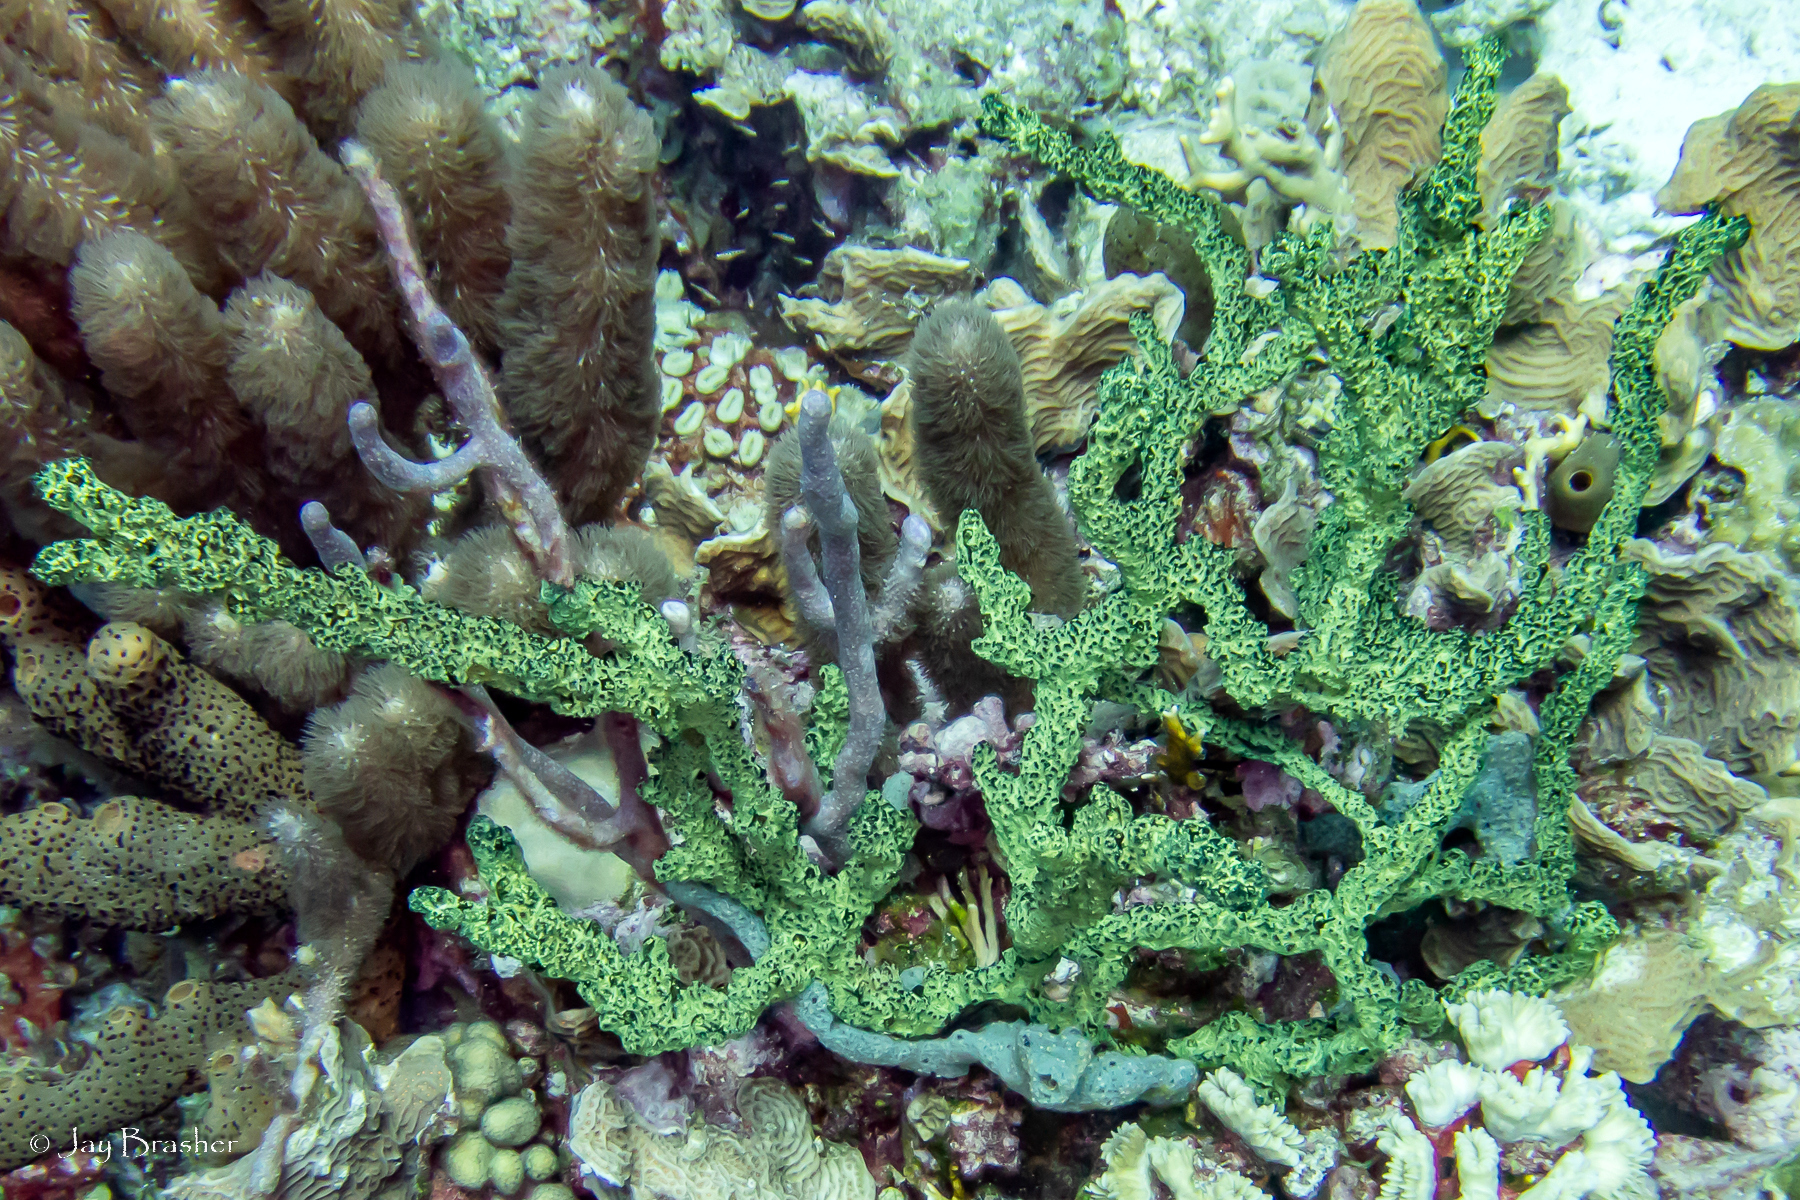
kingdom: Animalia
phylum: Porifera
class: Demospongiae
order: Poecilosclerida
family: Iotrochotidae
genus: Iotrochota
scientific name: Iotrochota birotulata
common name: Purple bleeding sponge
